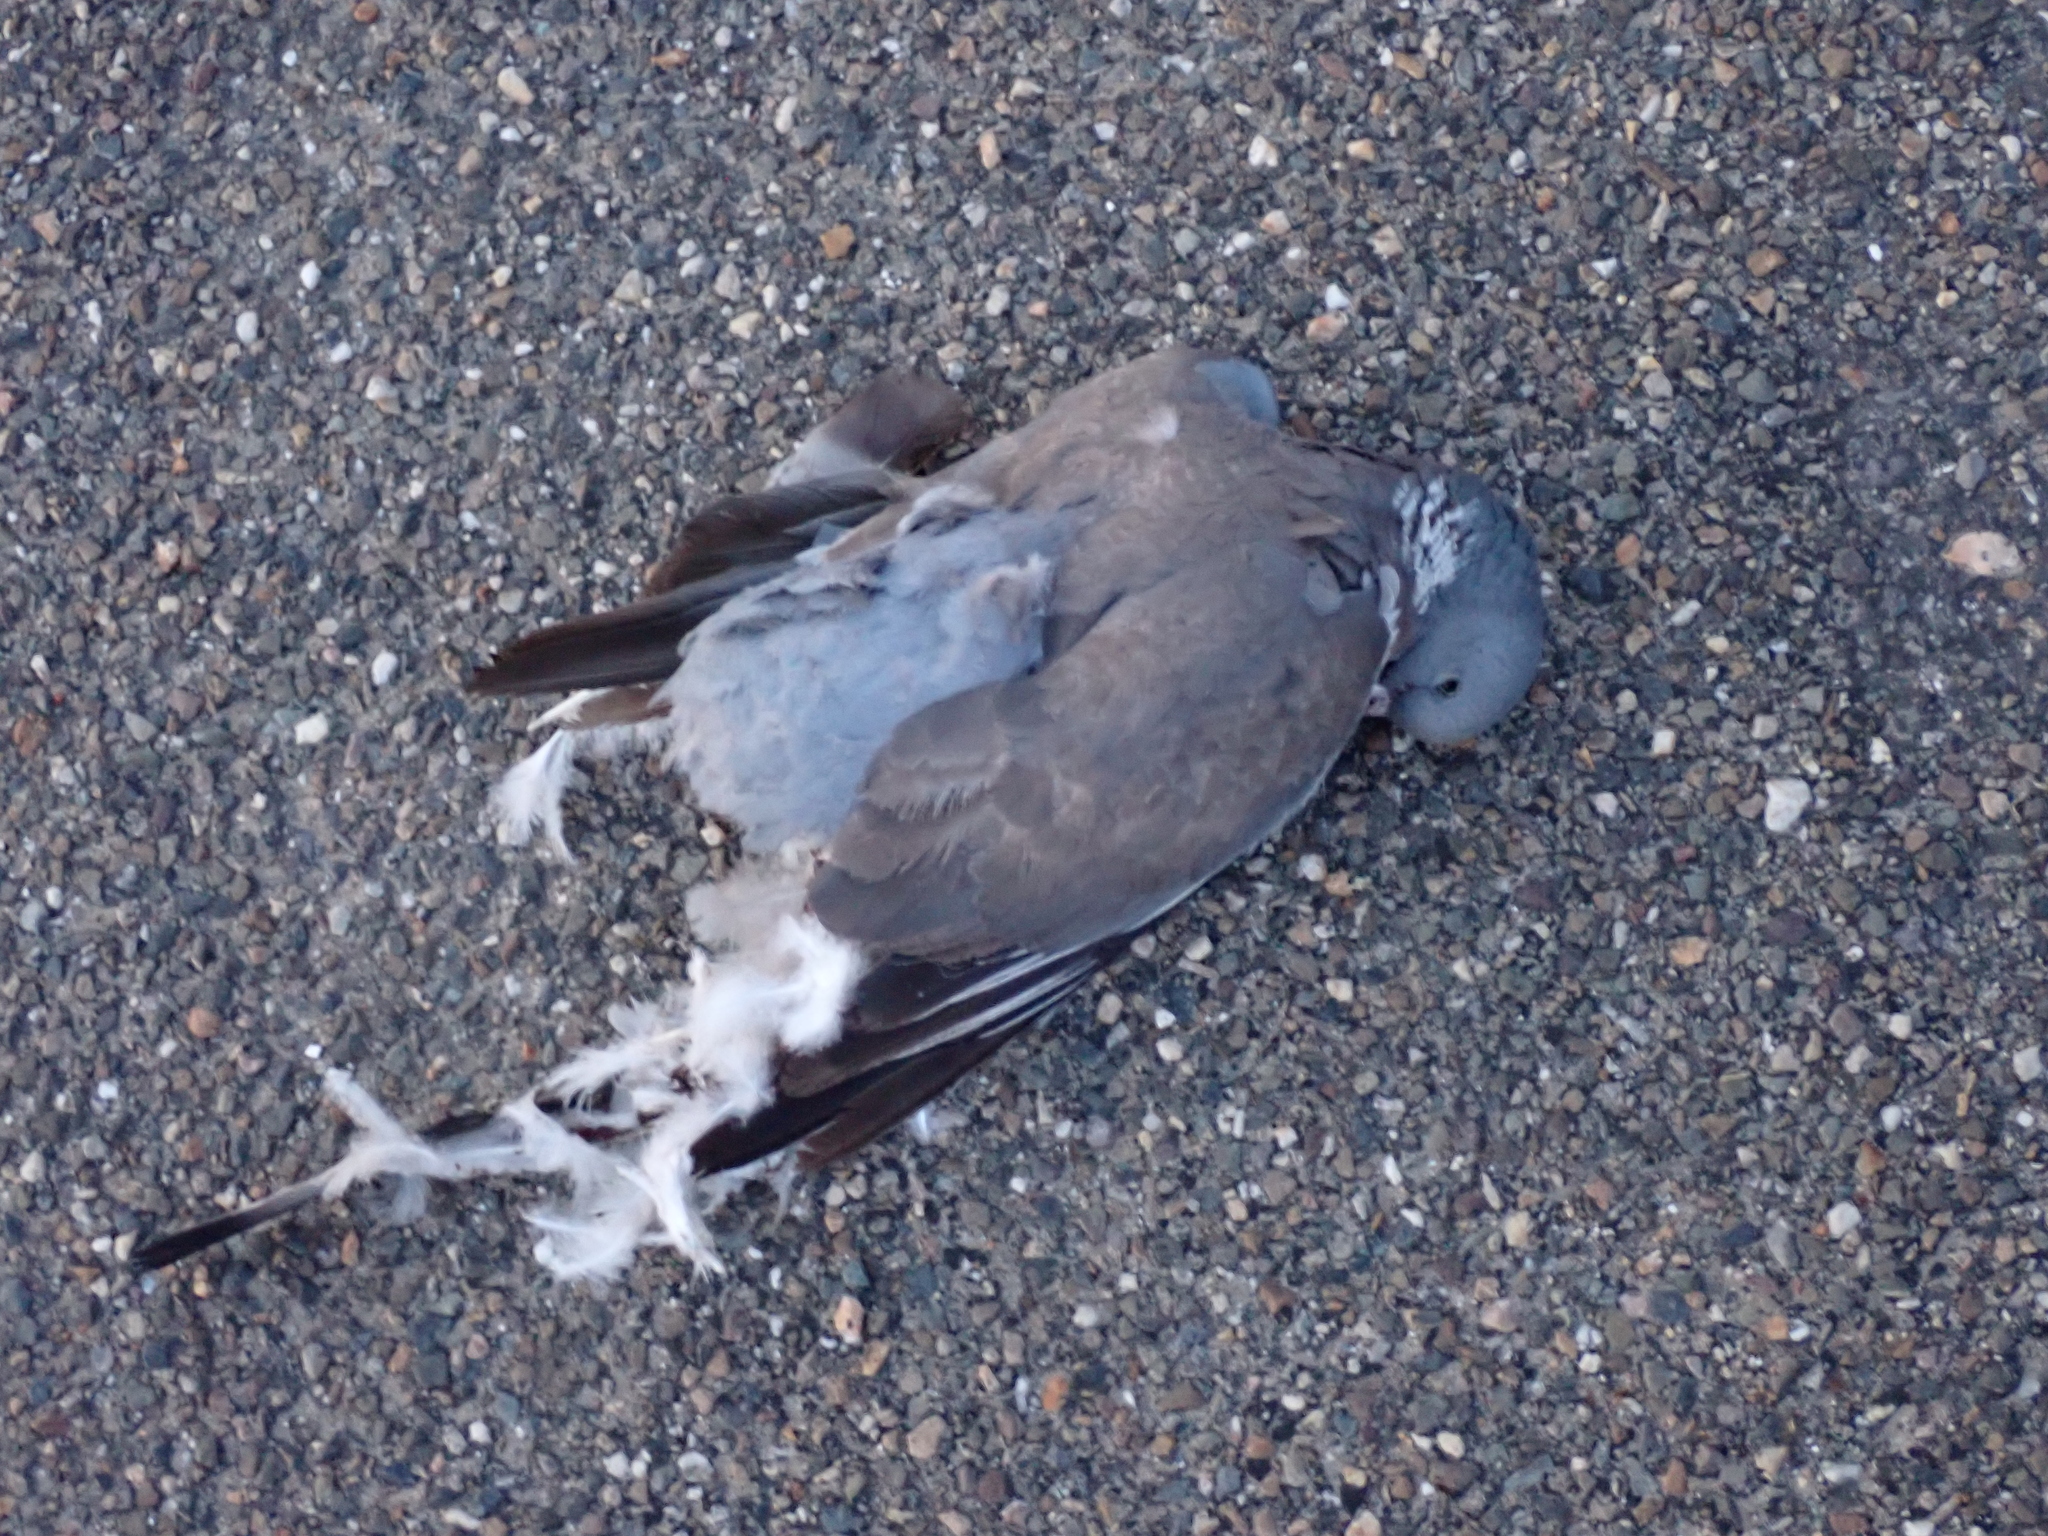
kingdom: Animalia
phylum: Chordata
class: Aves
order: Columbiformes
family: Columbidae
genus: Columba
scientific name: Columba palumbus
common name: Common wood pigeon
